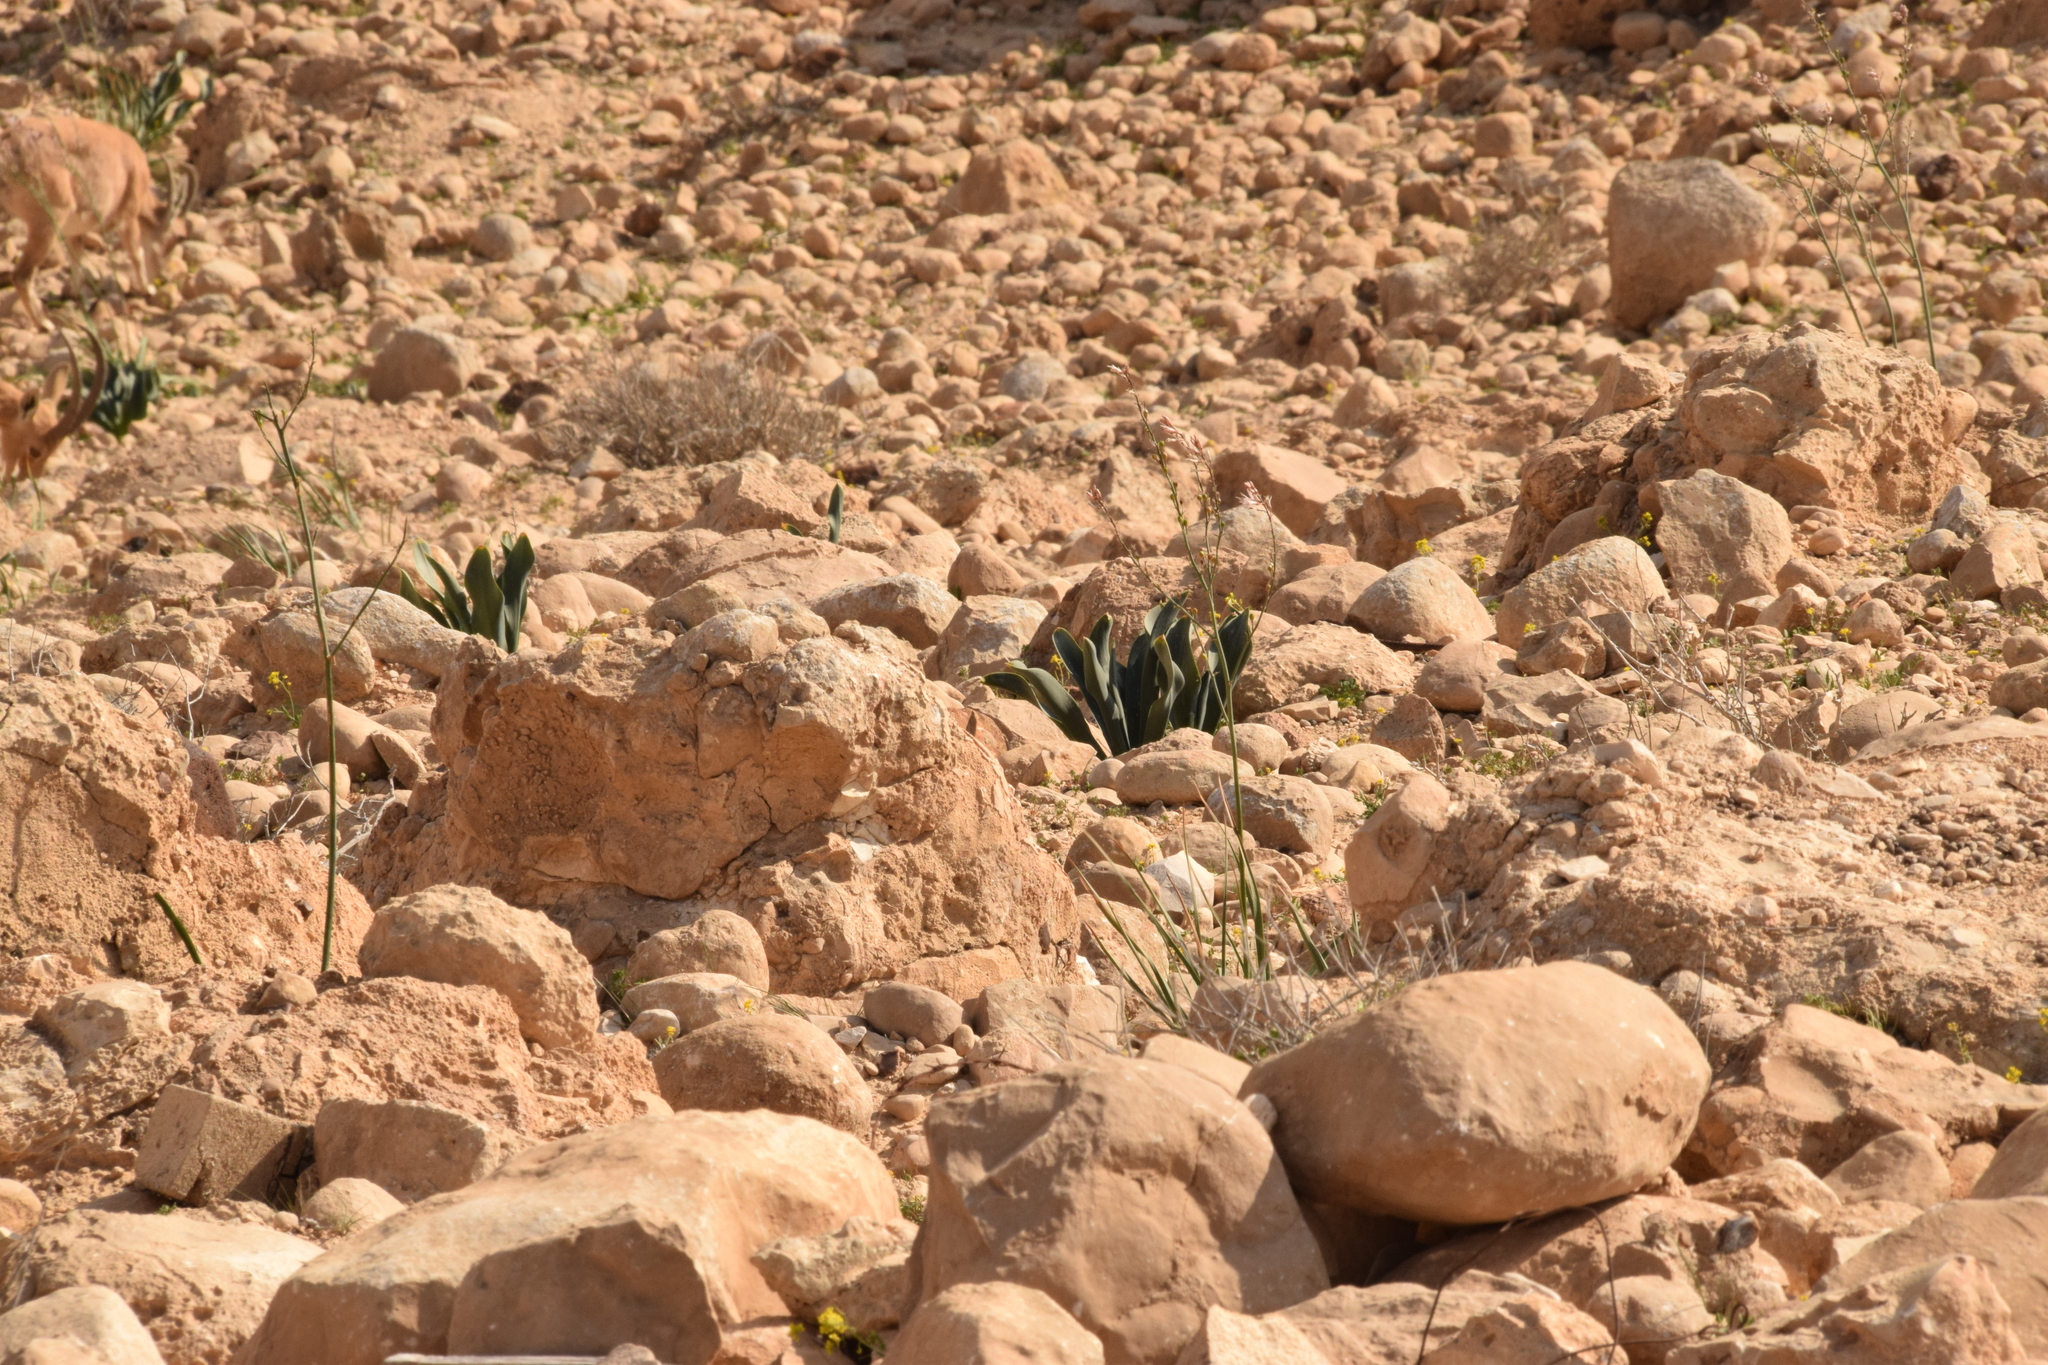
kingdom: Plantae
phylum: Tracheophyta
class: Liliopsida
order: Asparagales
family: Asparagaceae
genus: Drimia
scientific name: Drimia aphylla
